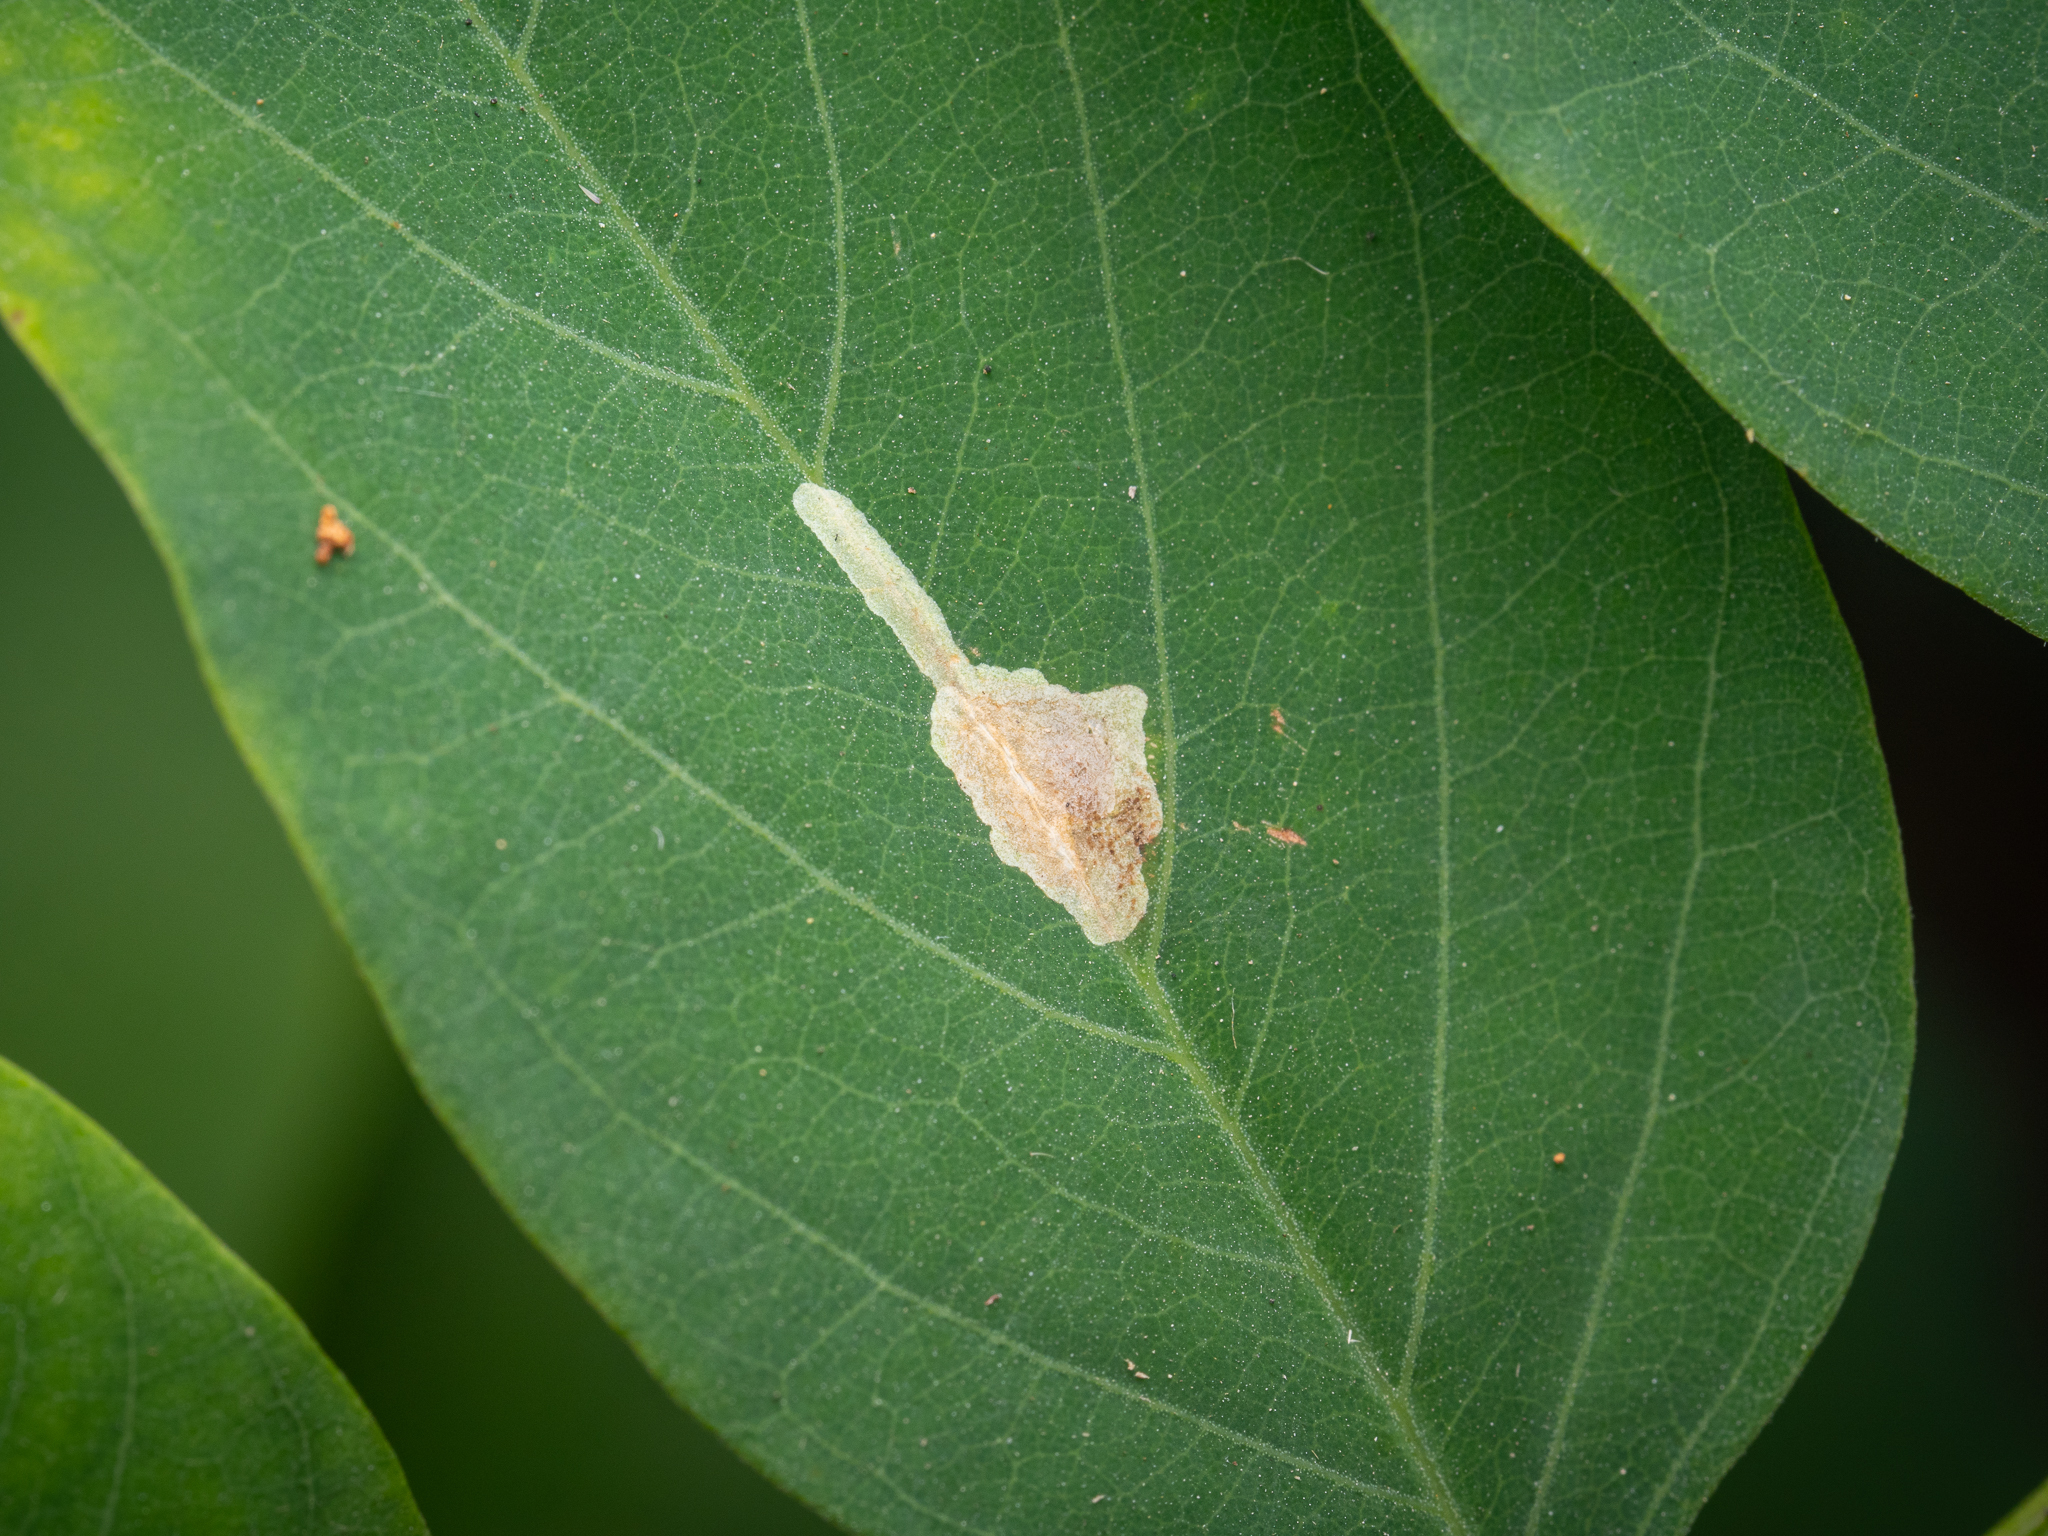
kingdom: Animalia
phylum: Arthropoda
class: Insecta
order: Lepidoptera
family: Gracillariidae
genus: Parectopa
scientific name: Parectopa robiniella
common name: Locust digitate leafminer
